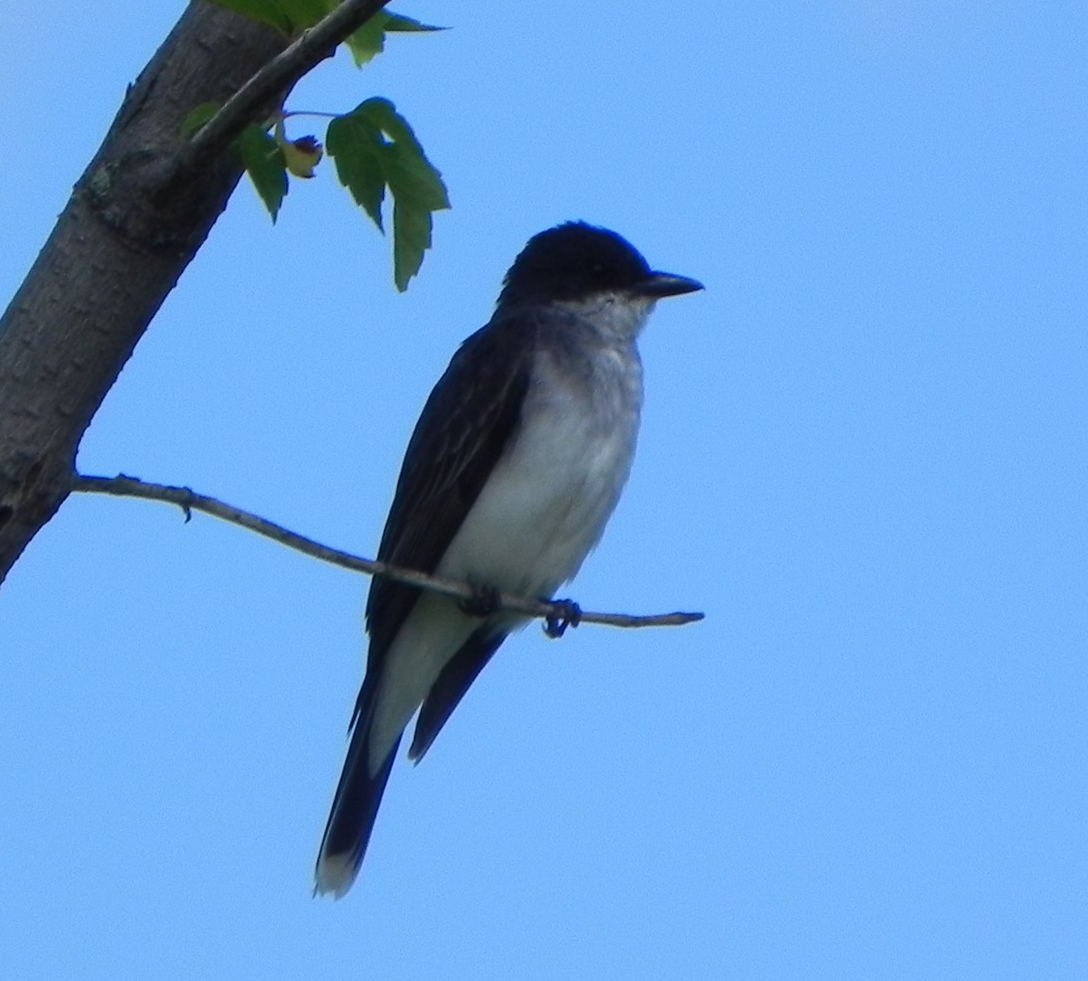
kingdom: Animalia
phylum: Chordata
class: Aves
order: Passeriformes
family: Tyrannidae
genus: Tyrannus
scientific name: Tyrannus tyrannus
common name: Eastern kingbird
